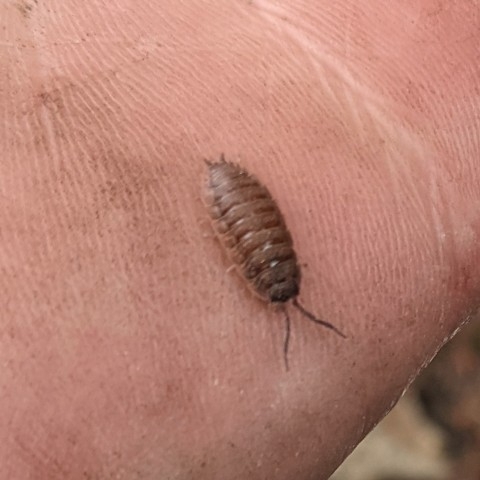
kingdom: Animalia
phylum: Arthropoda
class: Malacostraca
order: Isopoda
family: Porcellionidae
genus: Porcellio
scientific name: Porcellio scaber
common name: Common rough woodlouse
